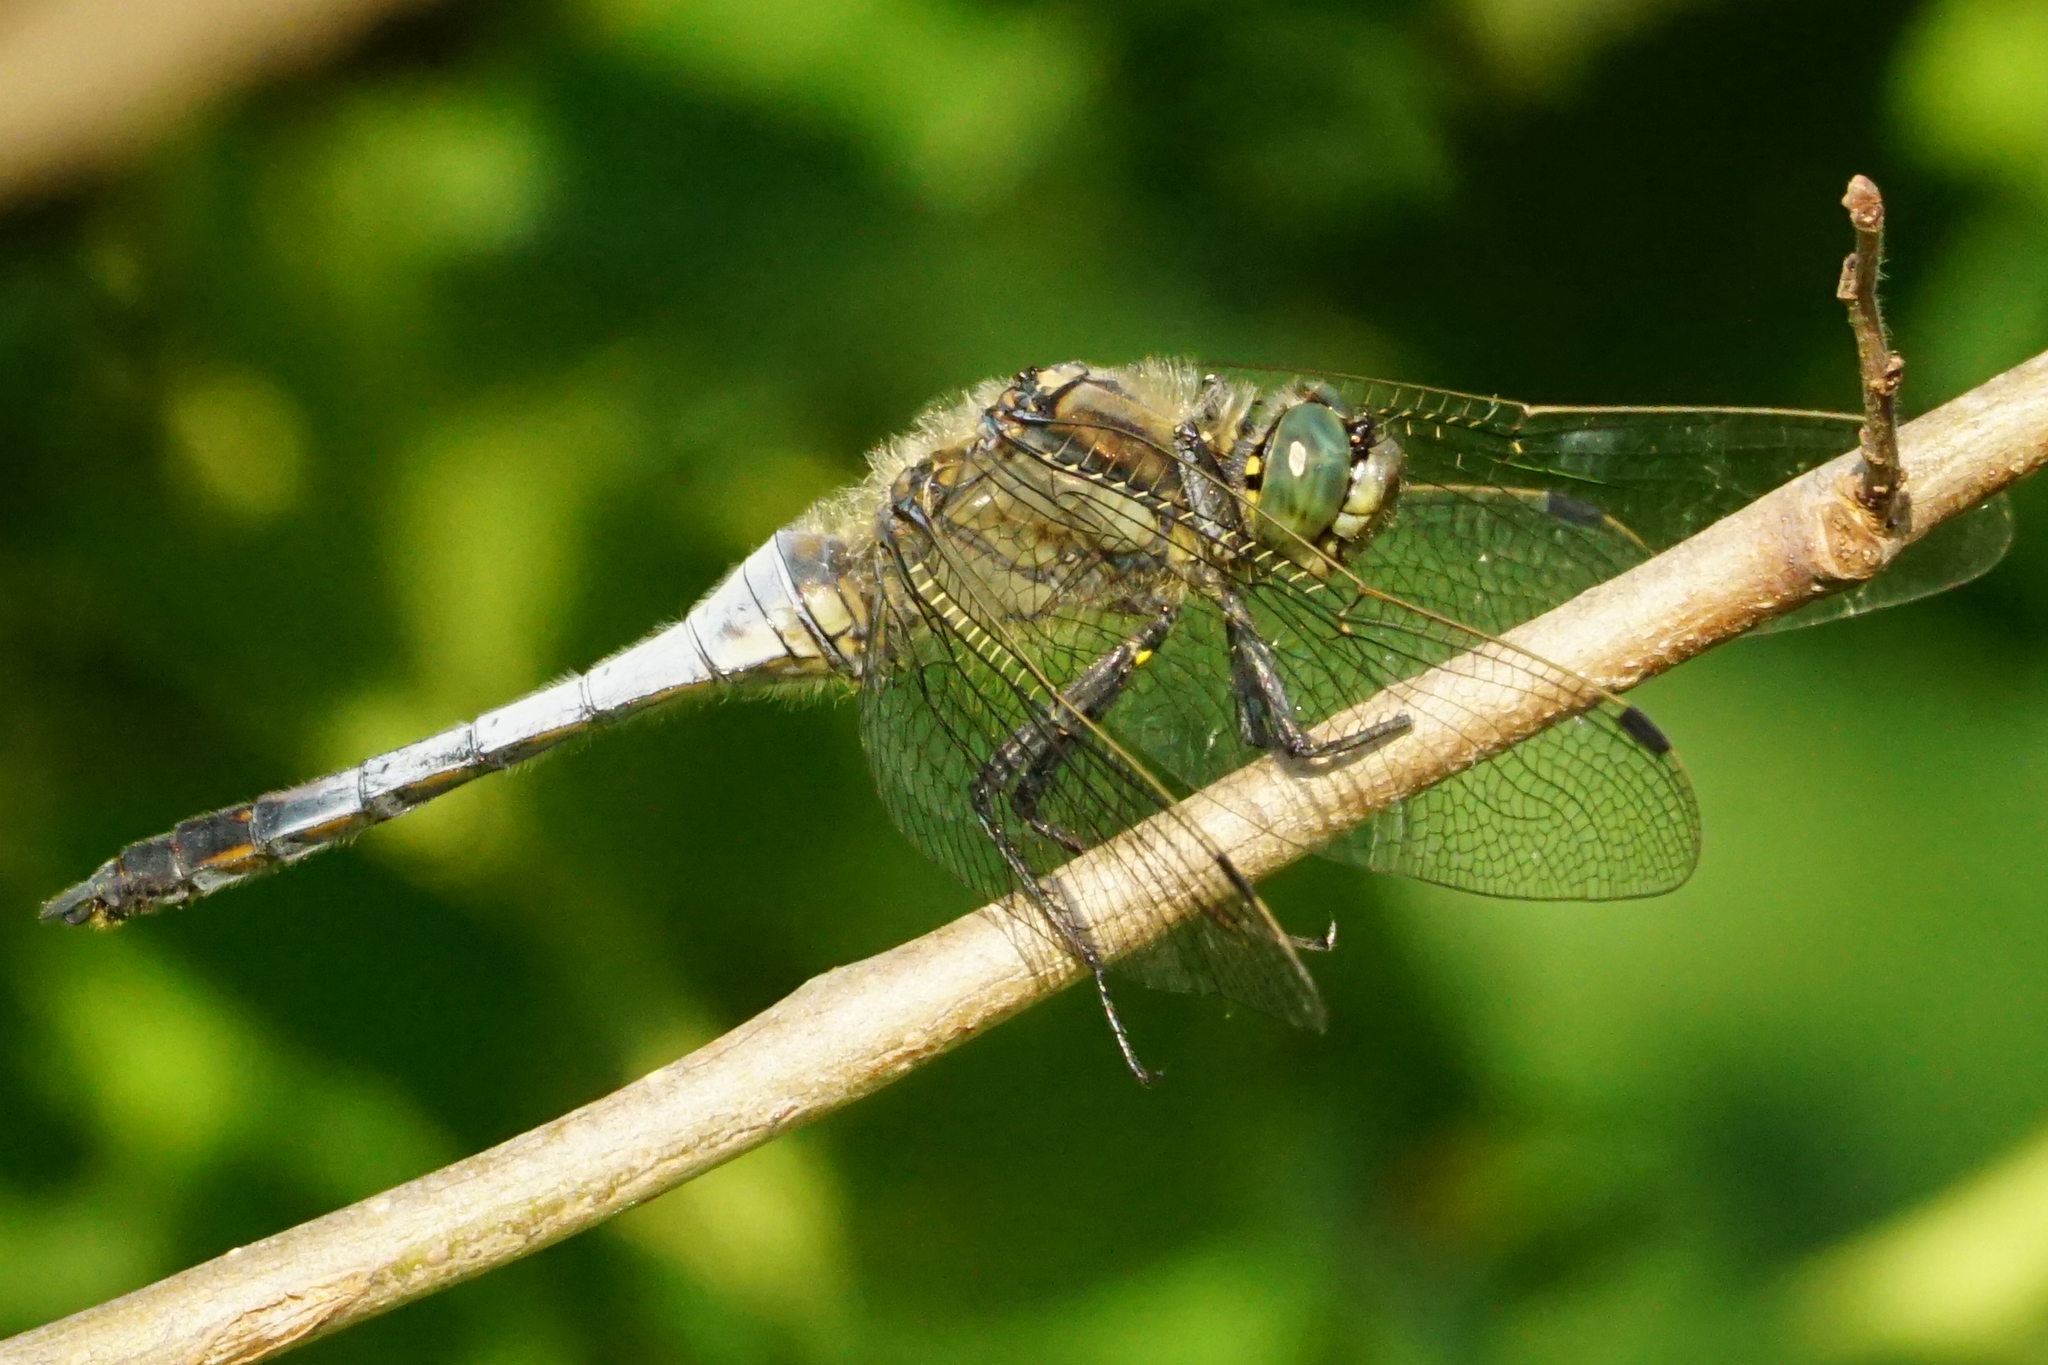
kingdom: Animalia
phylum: Arthropoda
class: Insecta
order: Odonata
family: Libellulidae
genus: Orthetrum
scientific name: Orthetrum cancellatum
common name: Black-tailed skimmer
